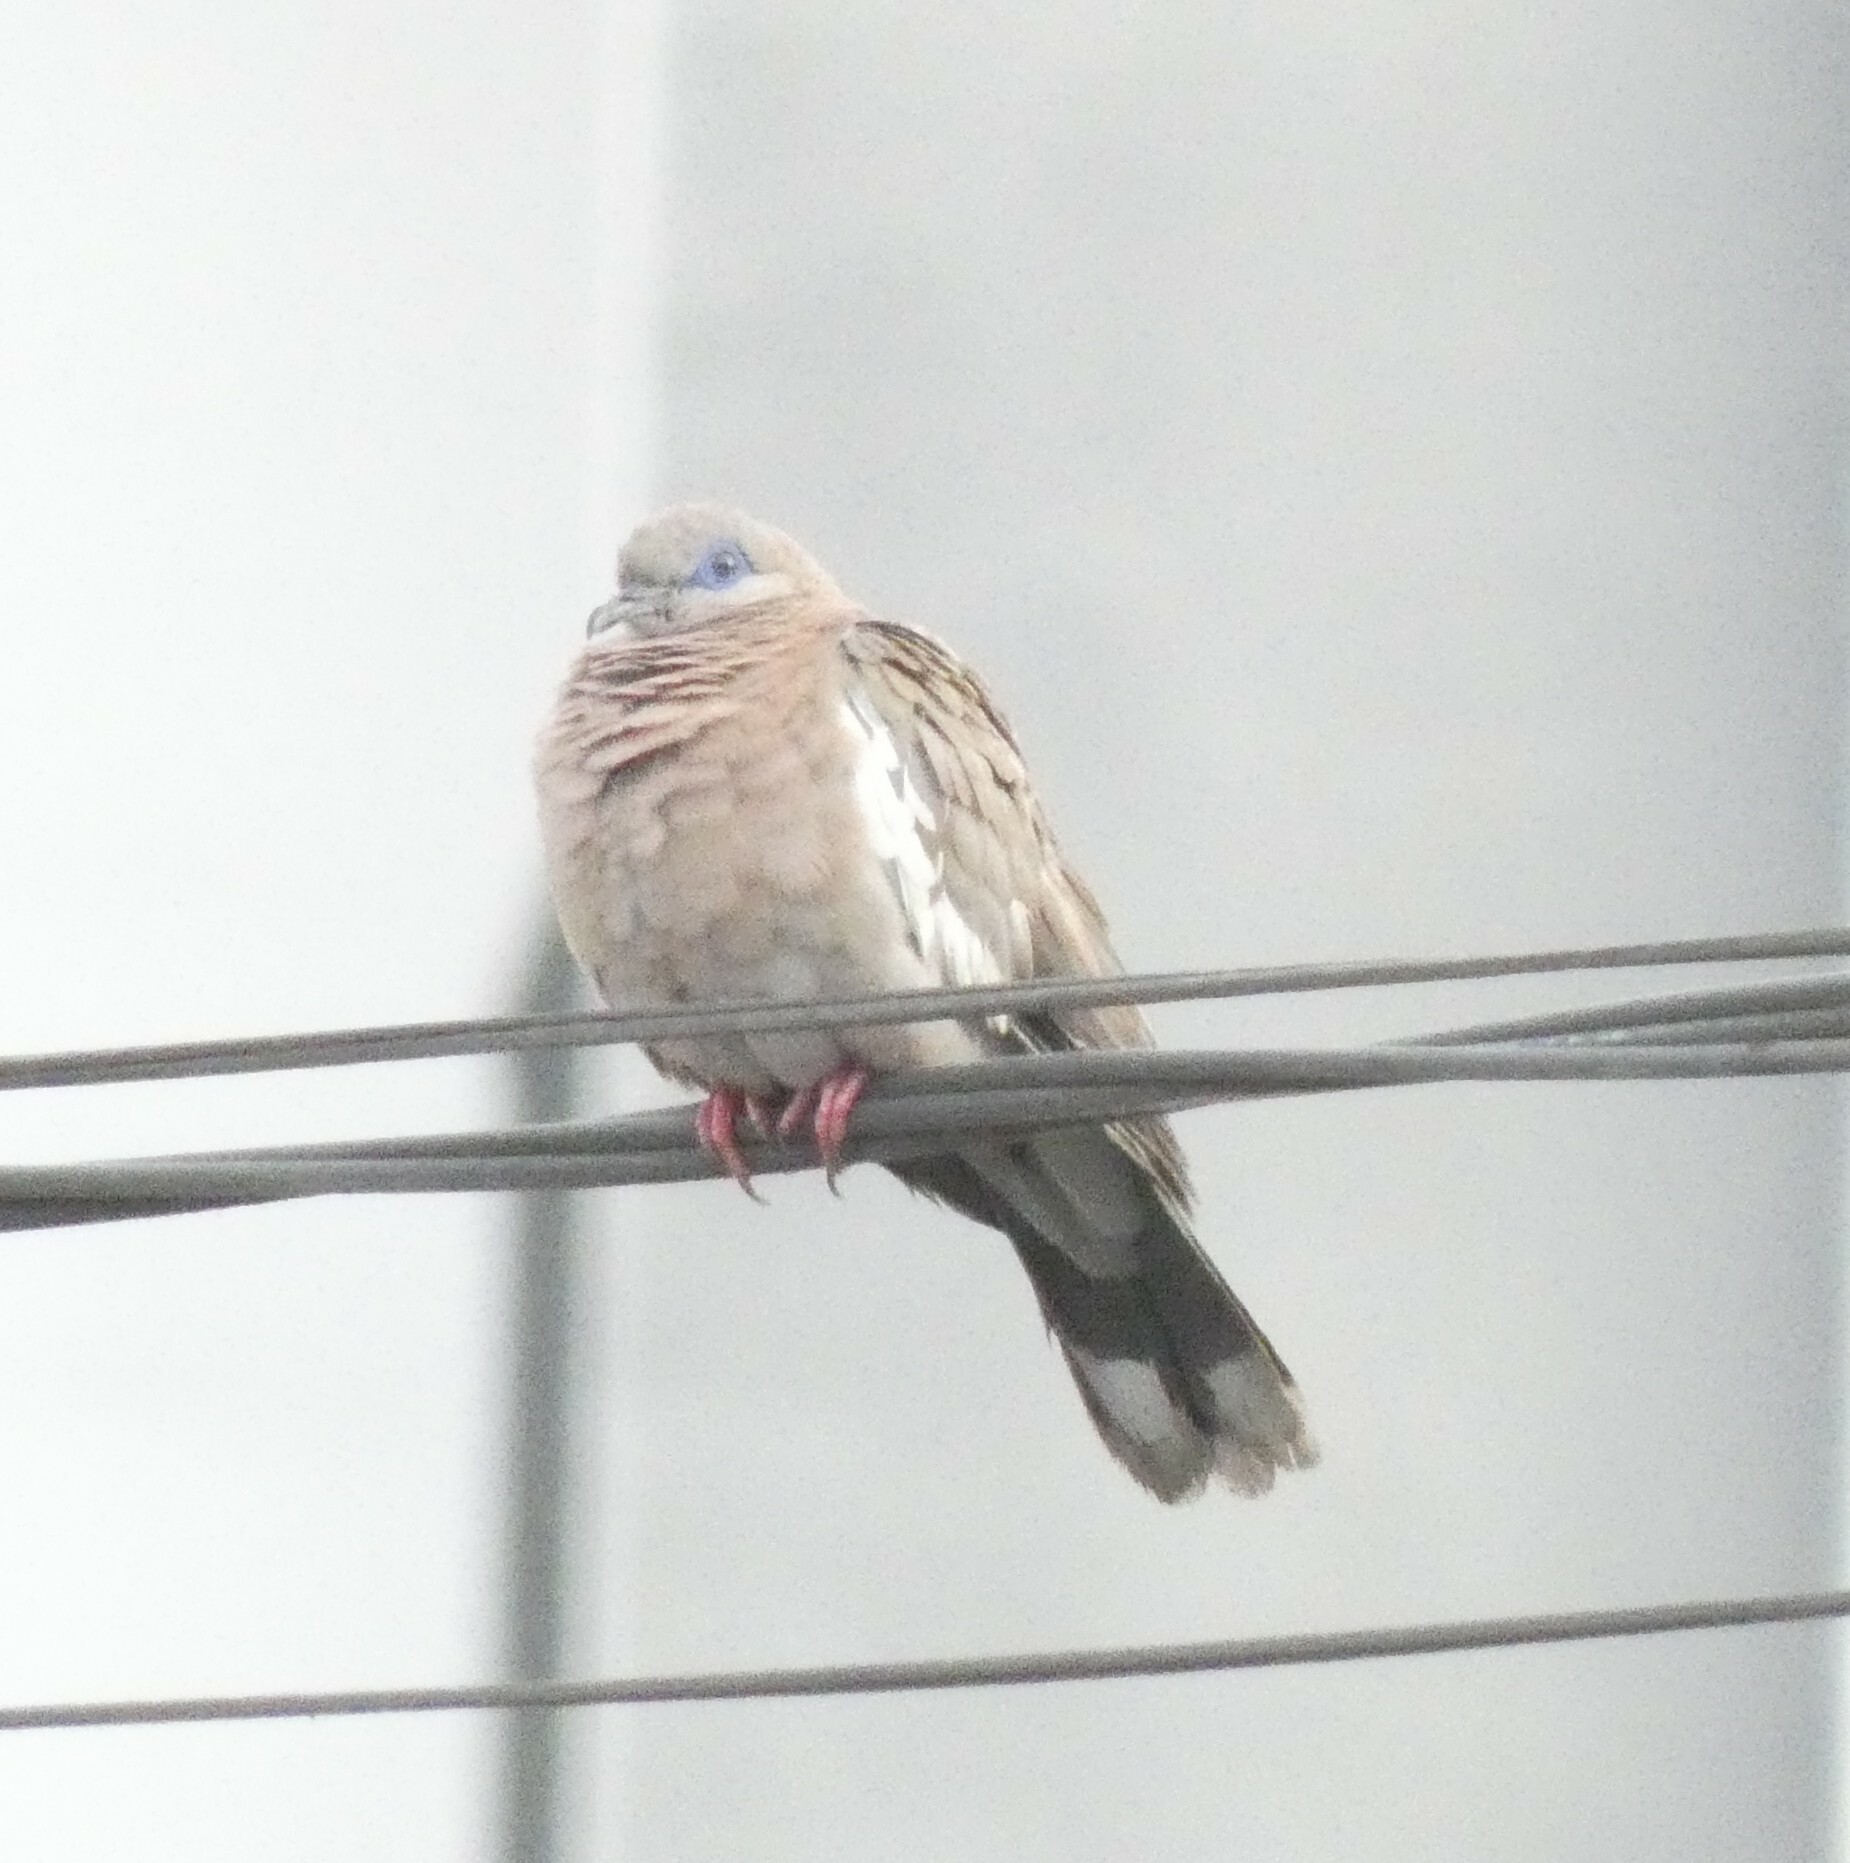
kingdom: Animalia
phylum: Chordata
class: Aves
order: Columbiformes
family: Columbidae
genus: Zenaida
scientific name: Zenaida meloda
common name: West peruvian dove
